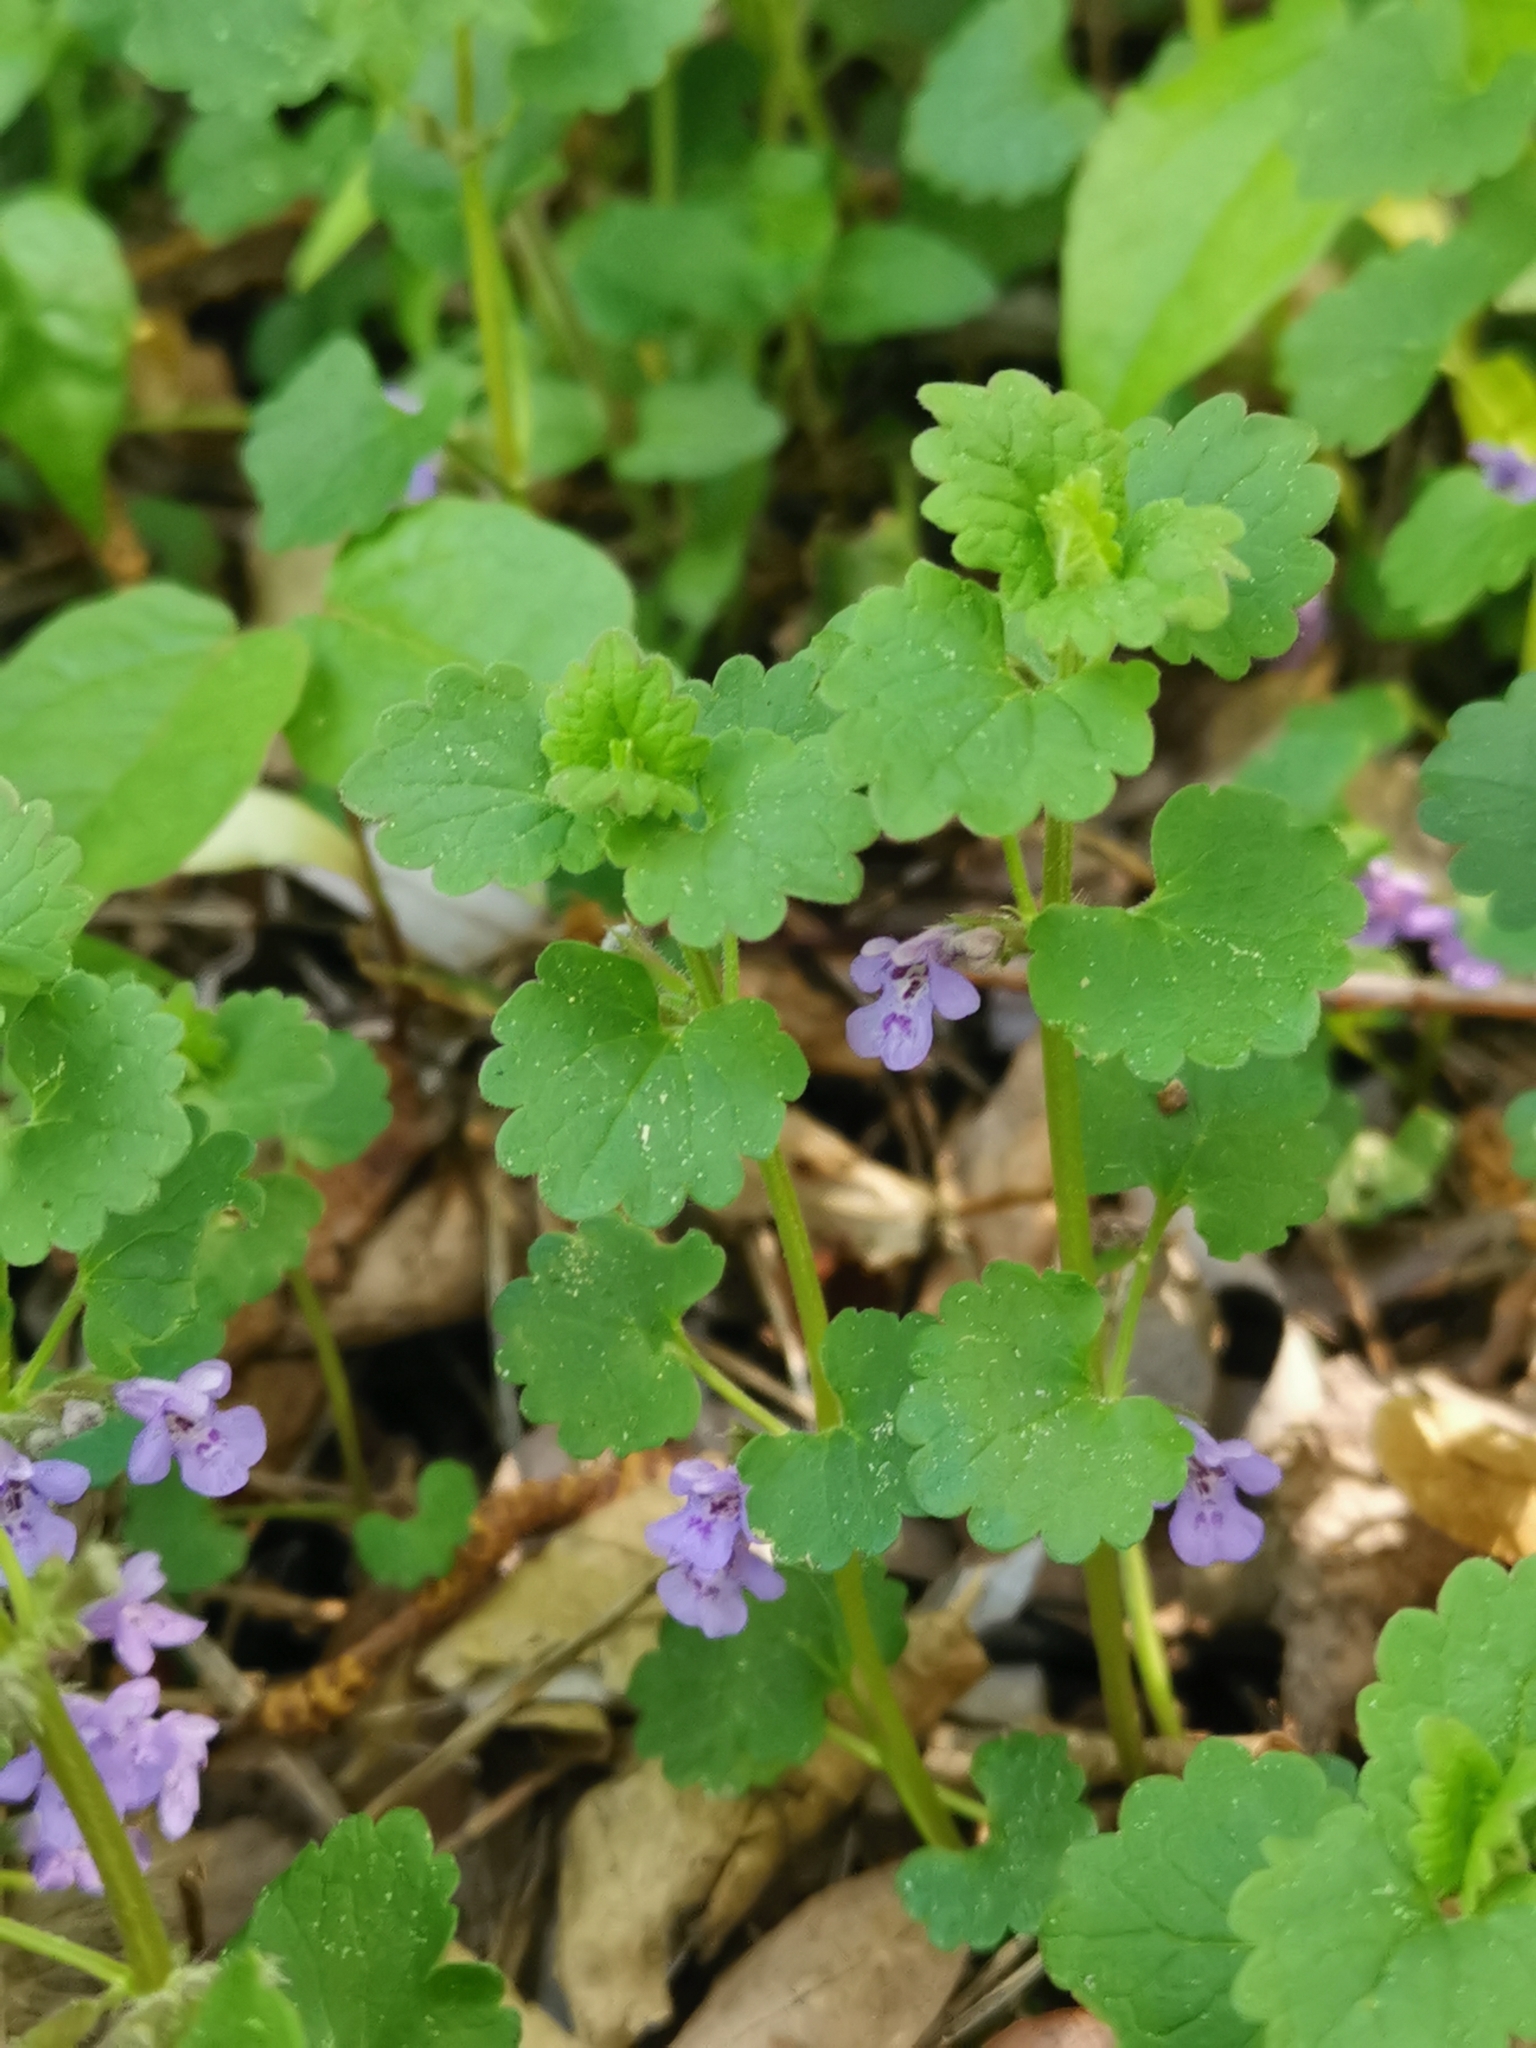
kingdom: Plantae
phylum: Tracheophyta
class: Magnoliopsida
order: Lamiales
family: Lamiaceae
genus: Glechoma
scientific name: Glechoma hederacea
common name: Ground ivy
